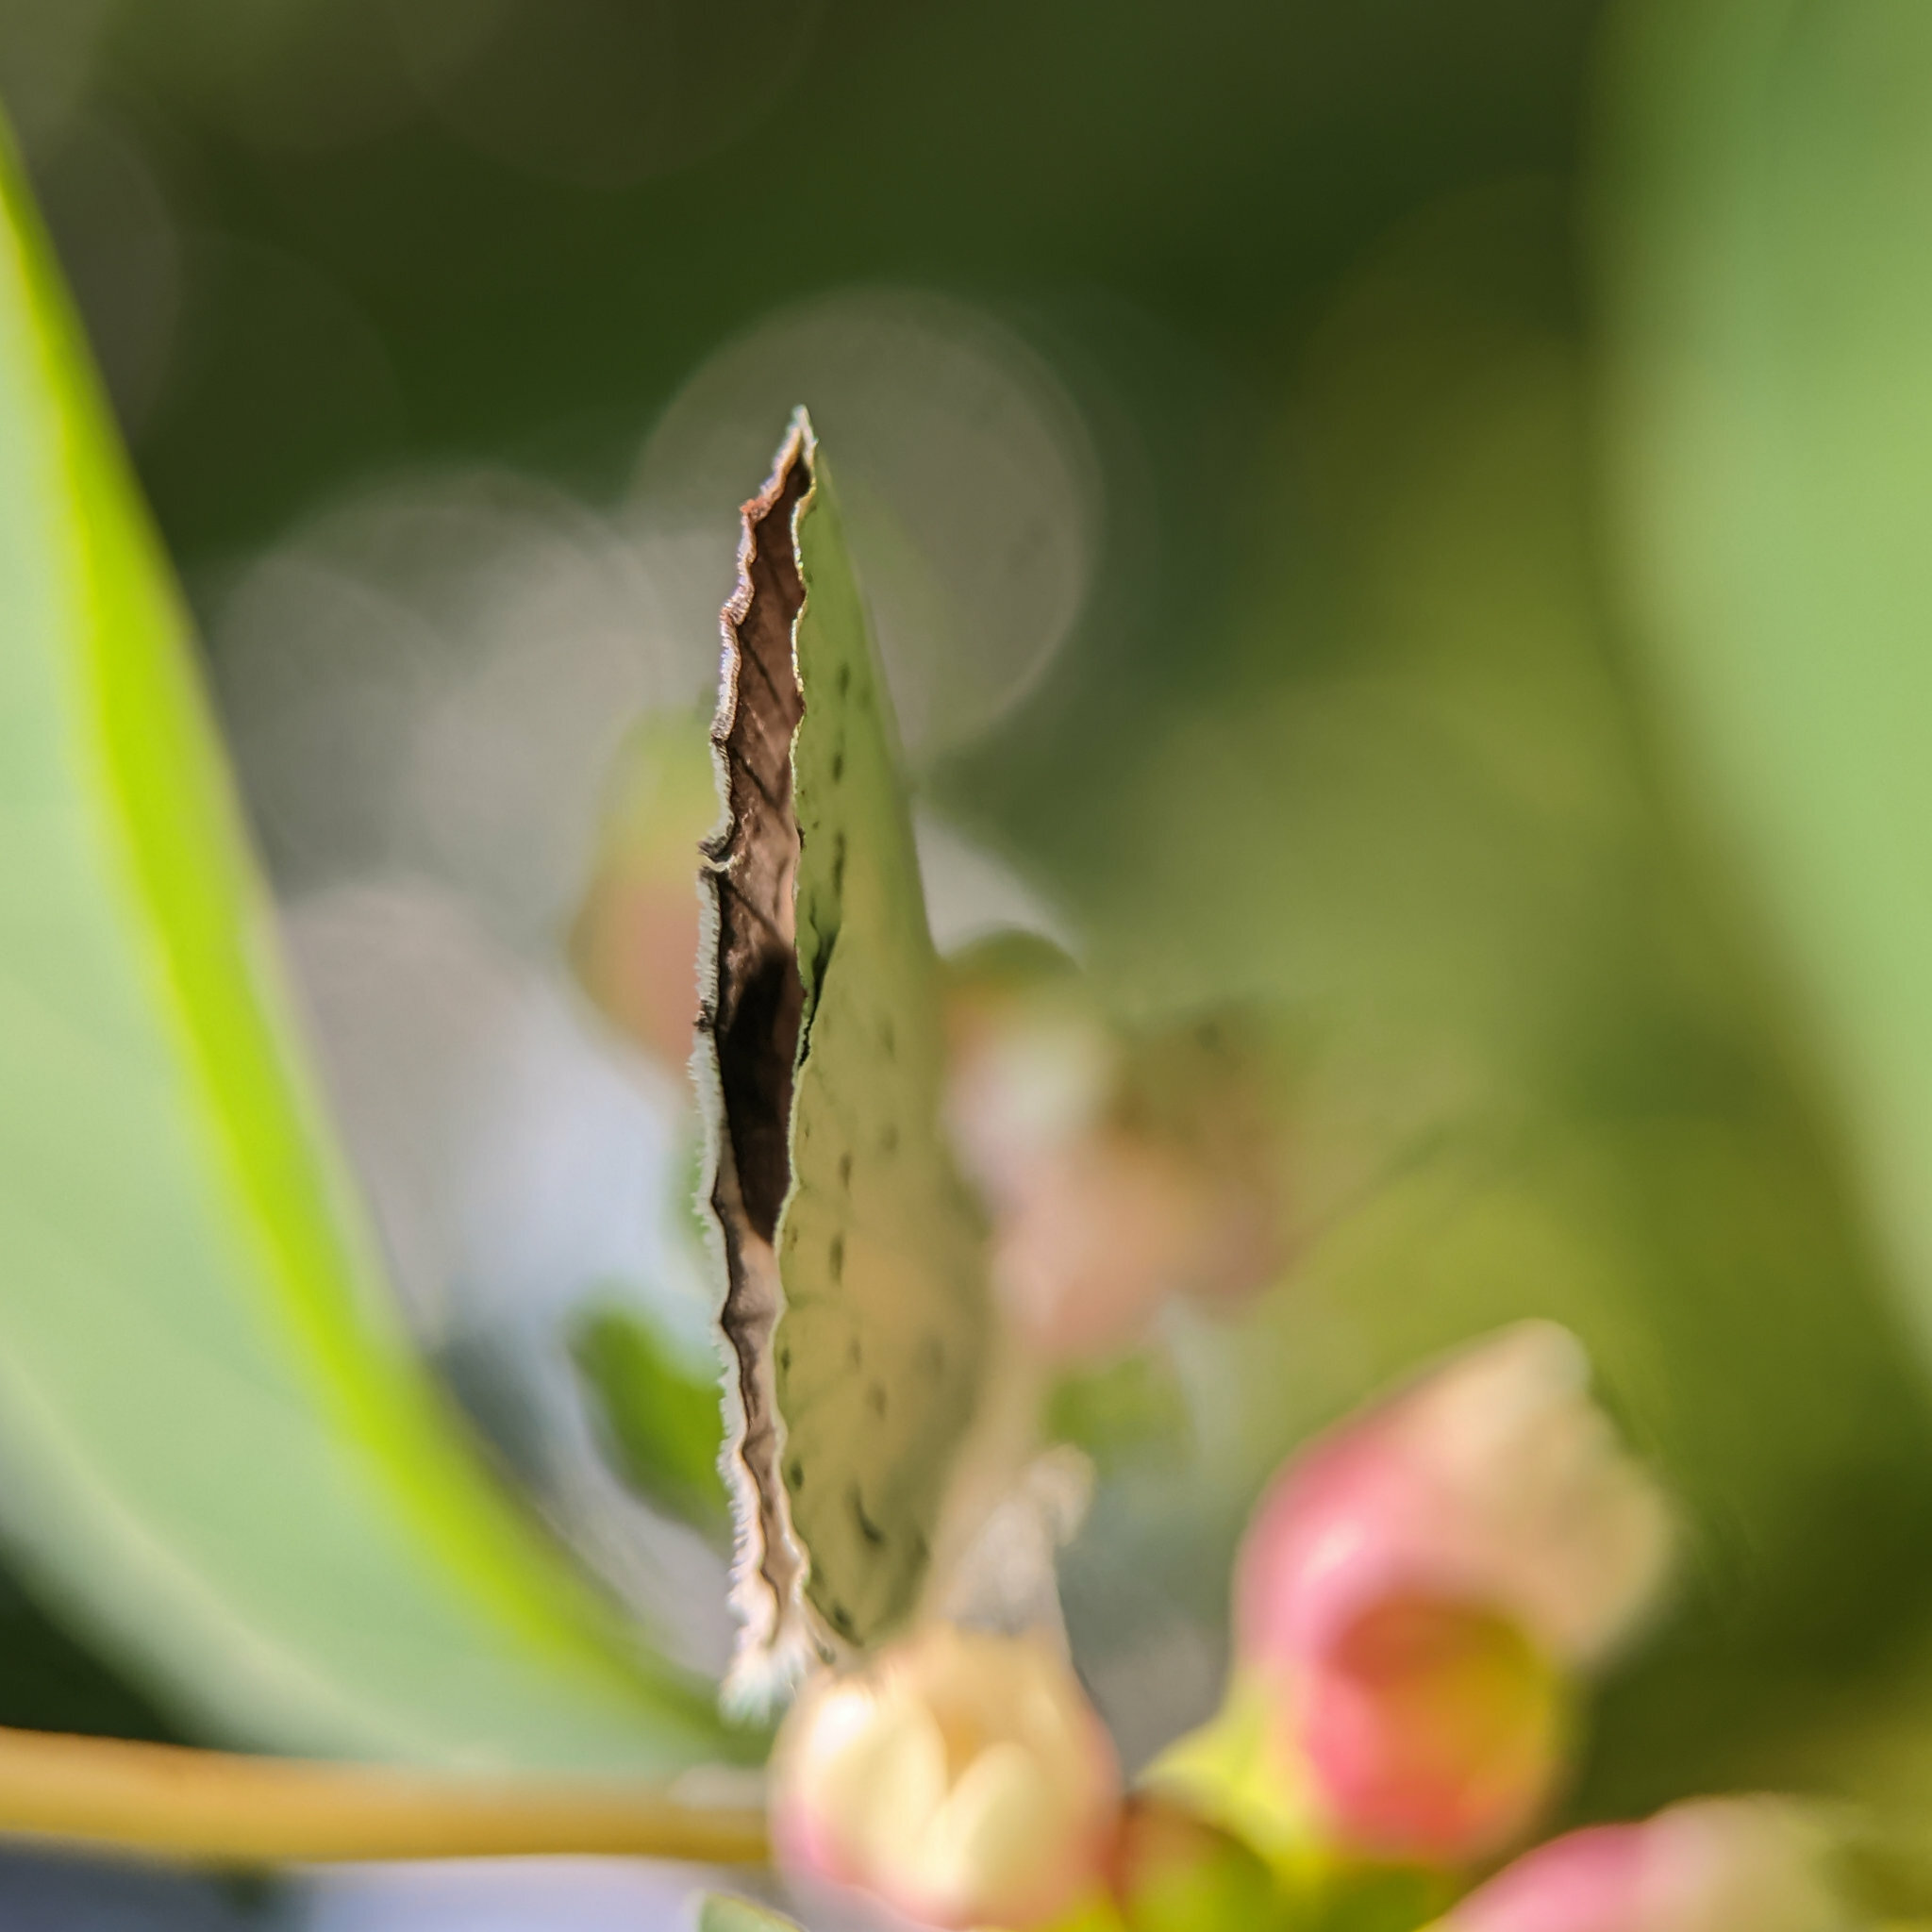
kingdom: Animalia
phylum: Arthropoda
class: Insecta
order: Lepidoptera
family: Lycaenidae
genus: Celastrina
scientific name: Celastrina argiolus
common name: Holly blue
